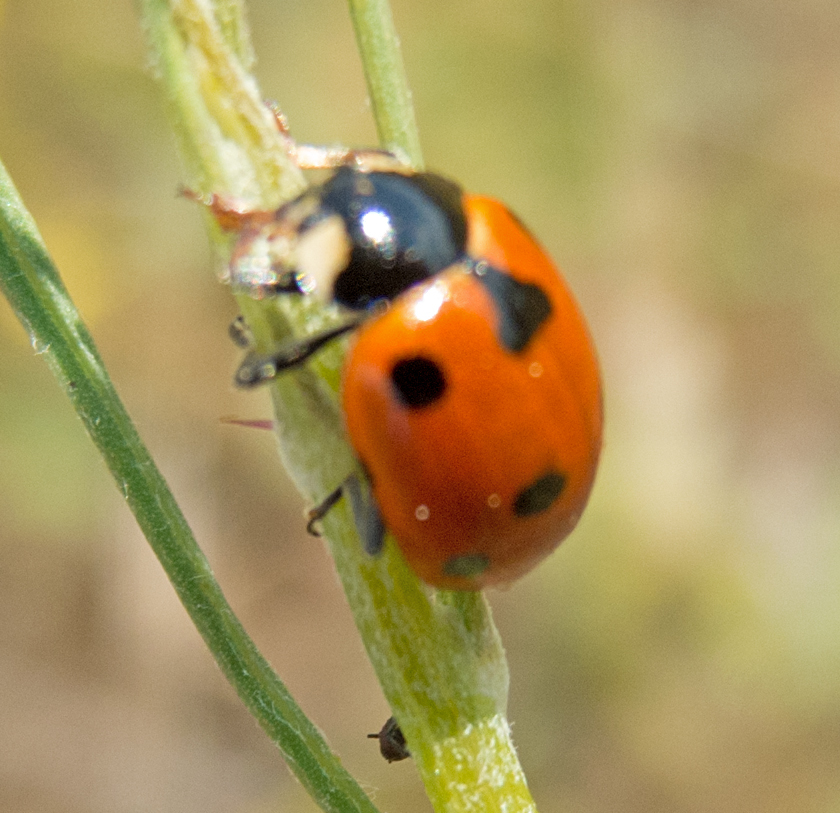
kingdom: Animalia
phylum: Arthropoda
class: Insecta
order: Coleoptera
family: Coccinellidae
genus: Coccinella
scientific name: Coccinella septempunctata
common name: Sevenspotted lady beetle
